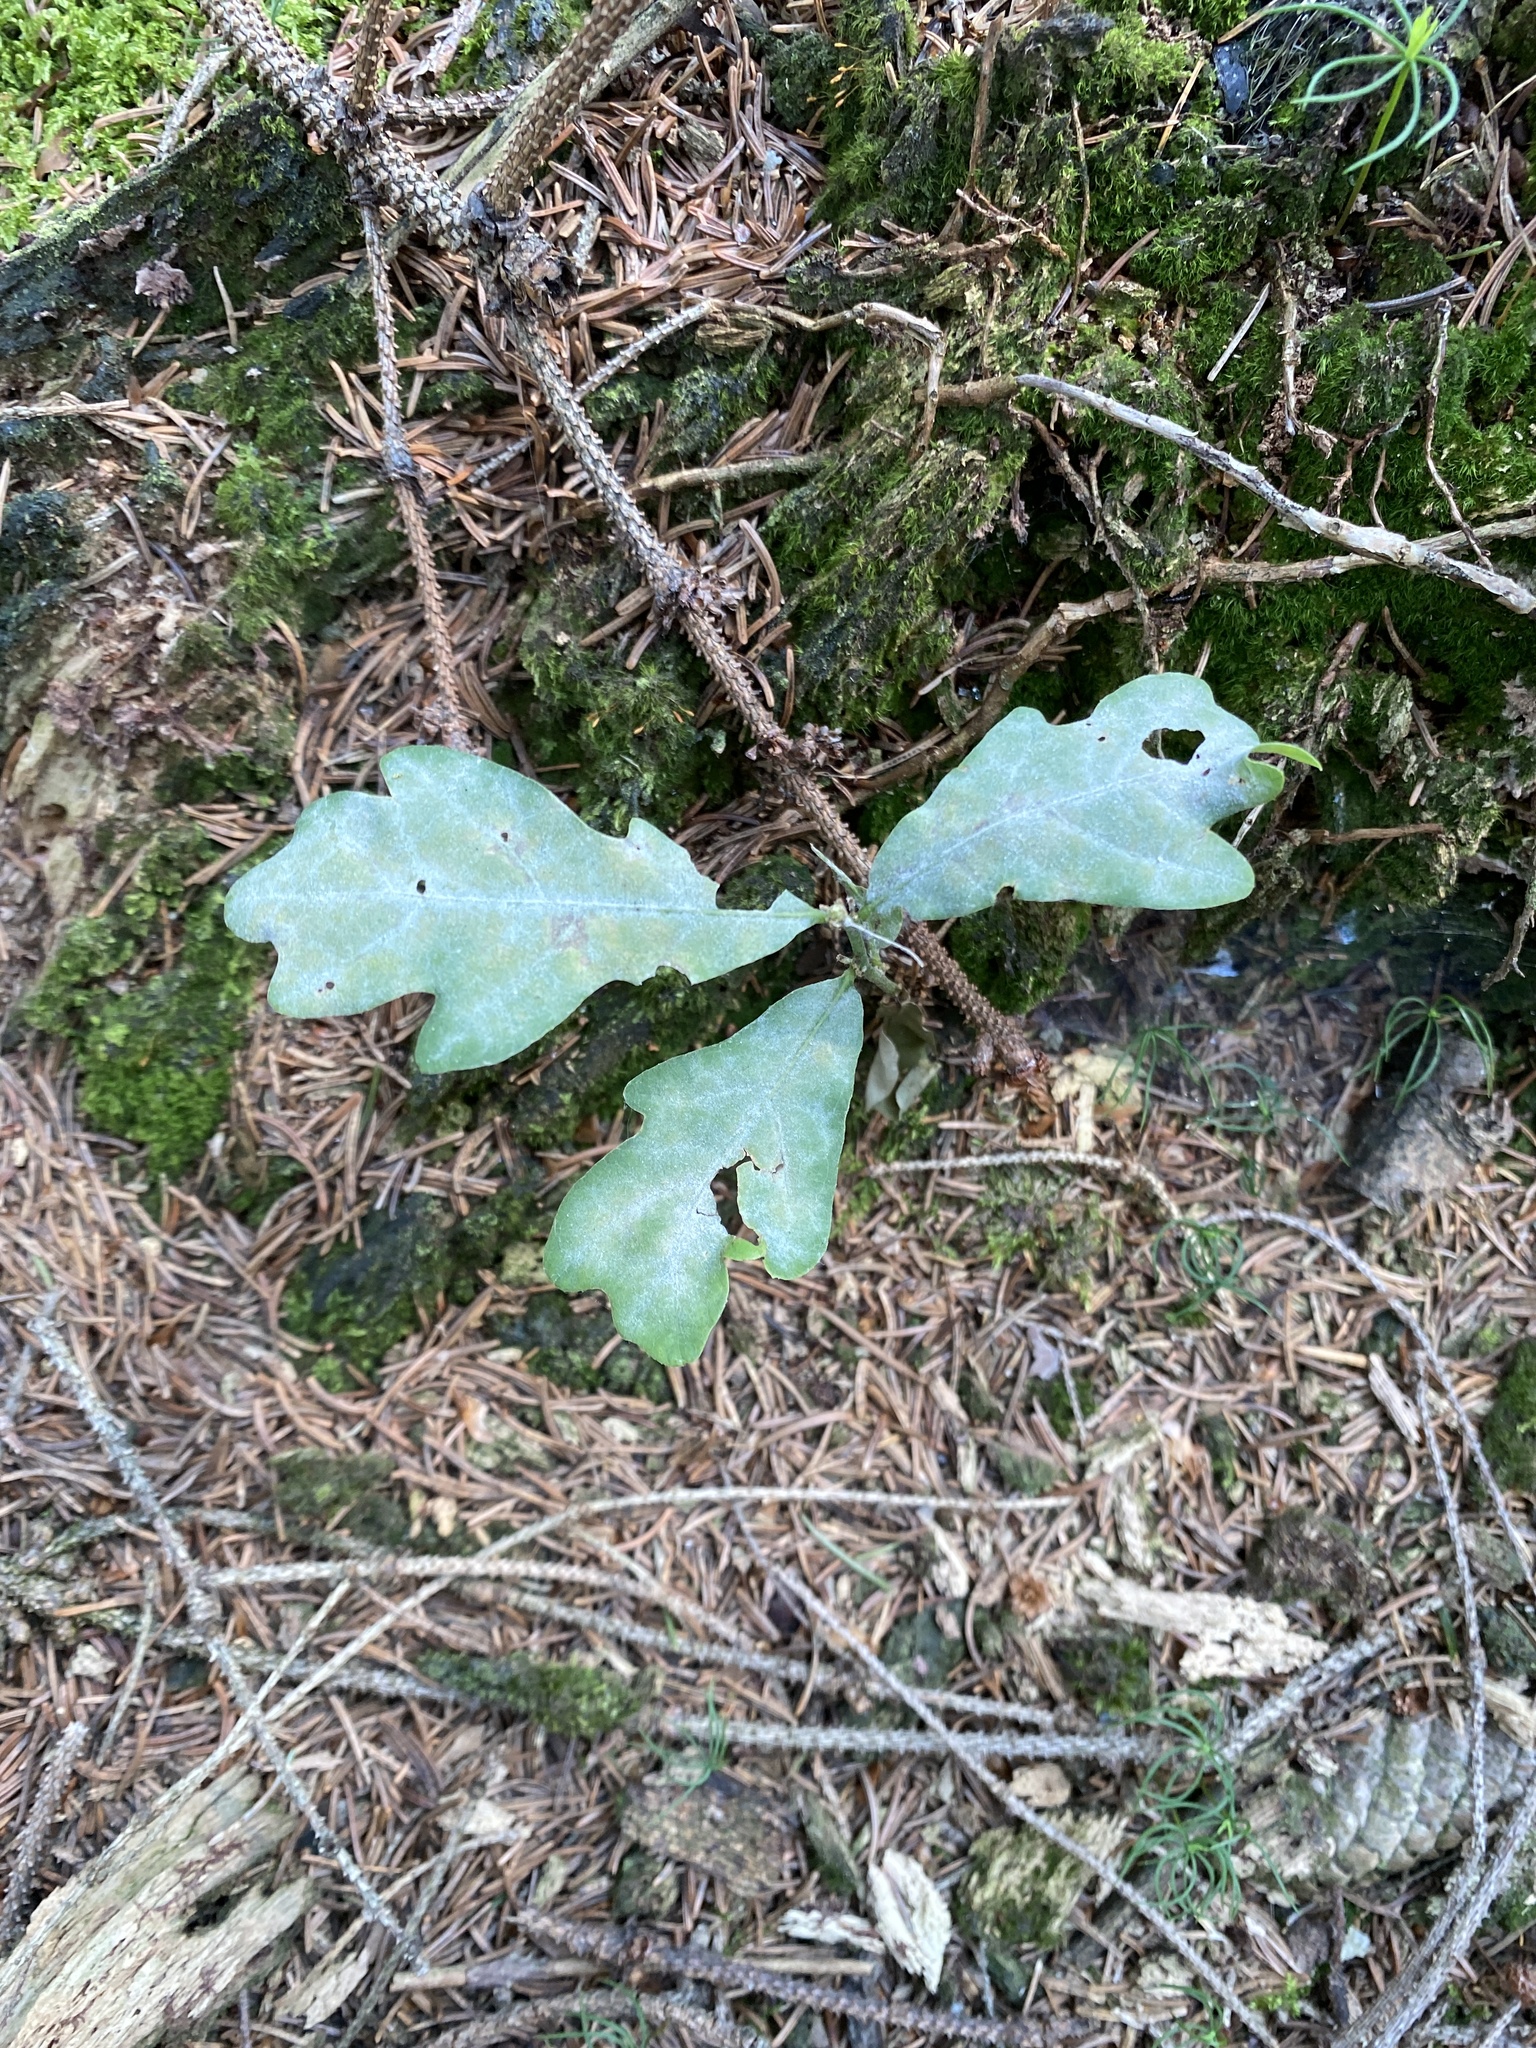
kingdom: Fungi
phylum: Ascomycota
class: Leotiomycetes
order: Helotiales
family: Erysiphaceae
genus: Erysiphe
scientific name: Erysiphe
